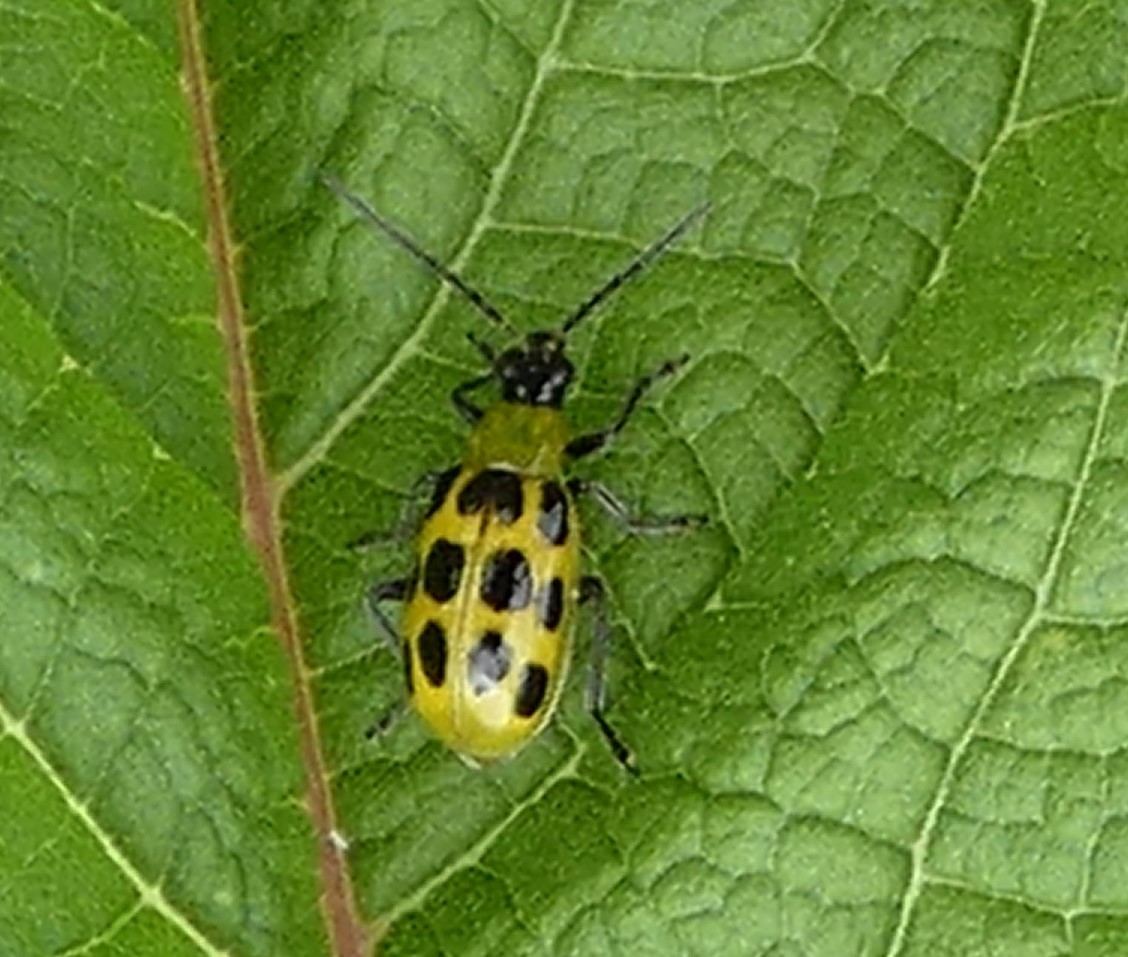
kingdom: Animalia
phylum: Arthropoda
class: Insecta
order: Coleoptera
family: Chrysomelidae
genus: Diabrotica
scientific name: Diabrotica undecimpunctata
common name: Spotted cucumber beetle
